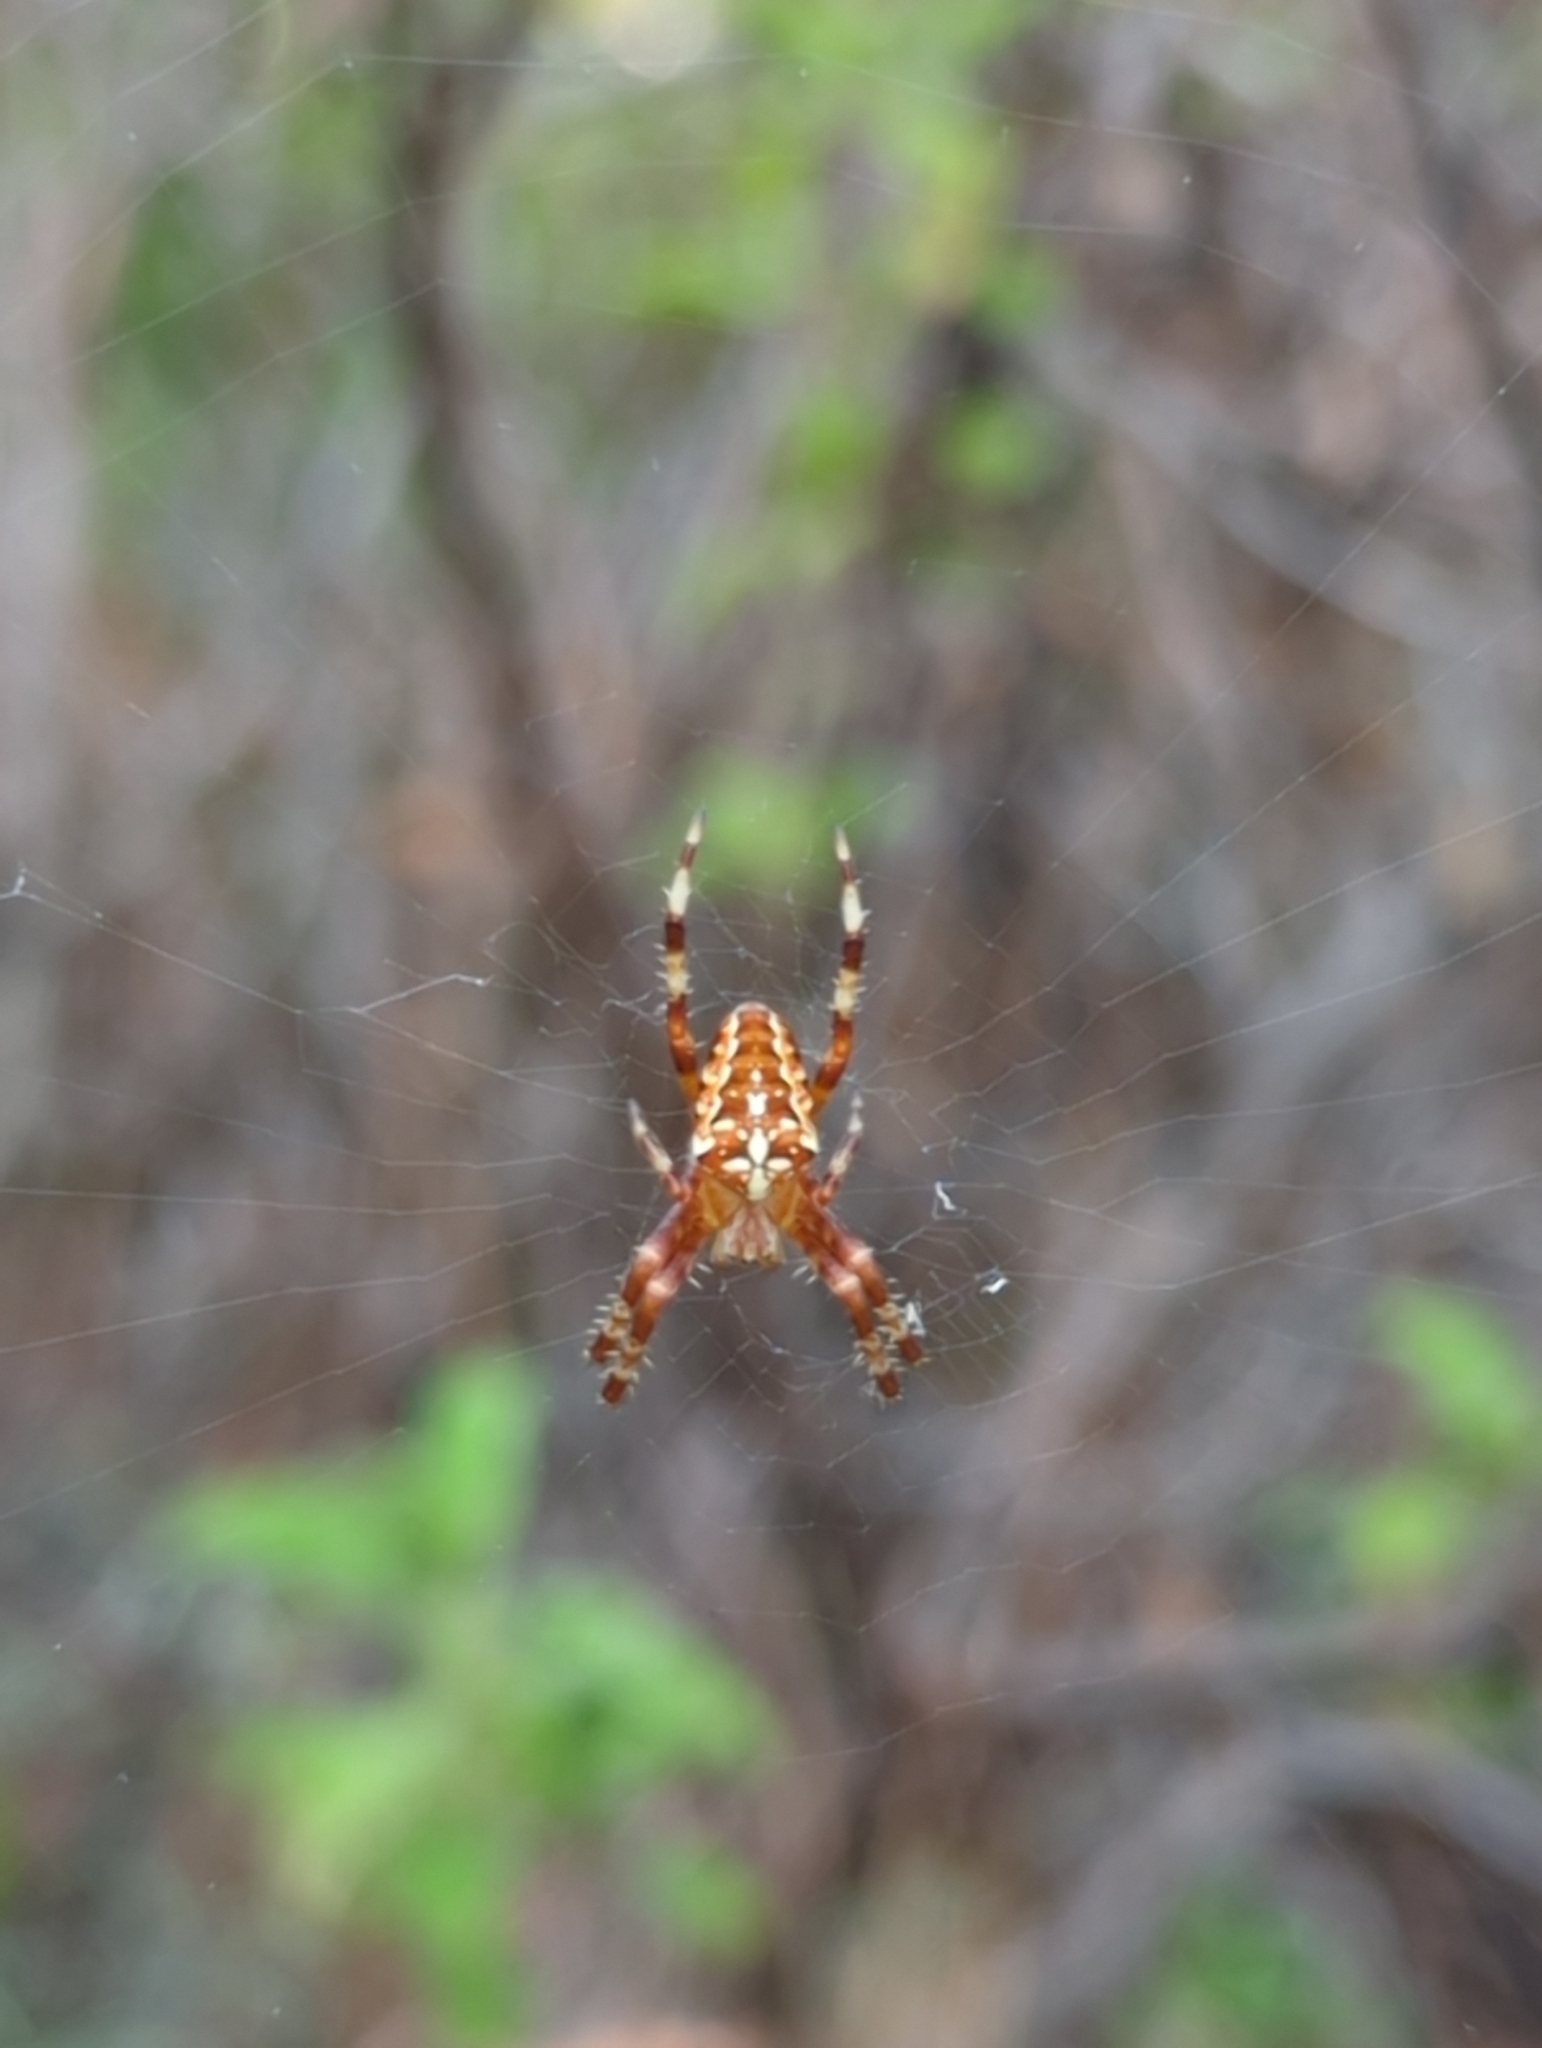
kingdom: Animalia
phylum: Arthropoda
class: Arachnida
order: Araneae
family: Araneidae
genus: Araneus
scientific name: Araneus diadematus
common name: Cross orbweaver
